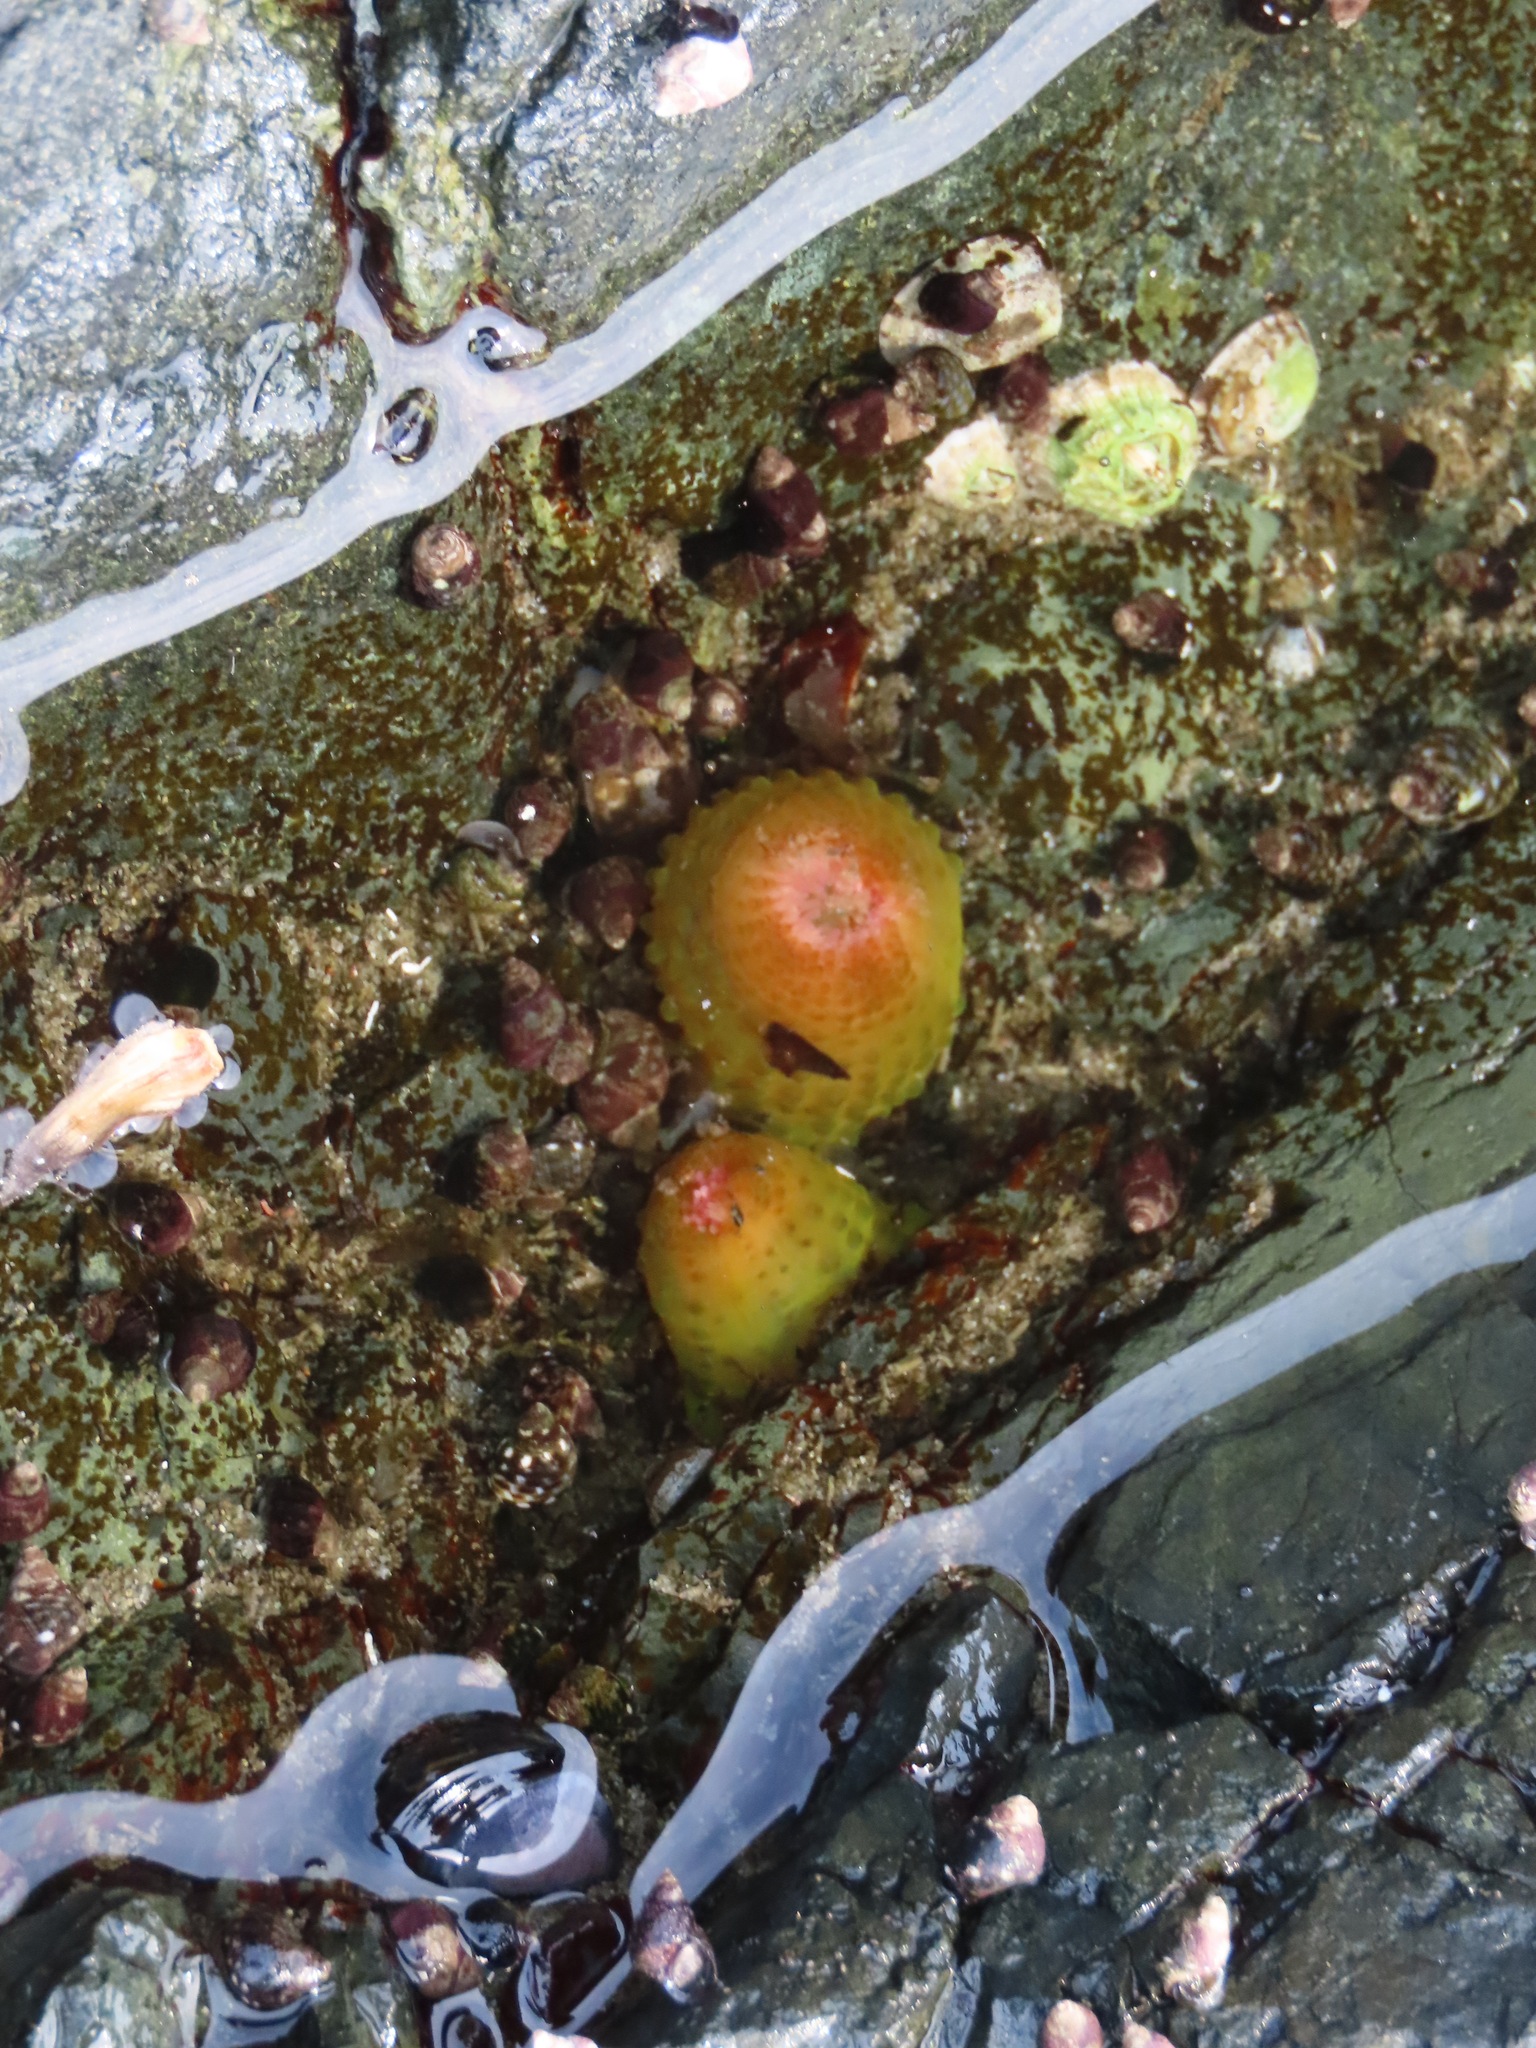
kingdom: Animalia
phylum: Cnidaria
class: Anthozoa
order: Actiniaria
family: Actiniidae
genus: Anthopleura
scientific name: Anthopleura elegantissima
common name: Clonal anemone
